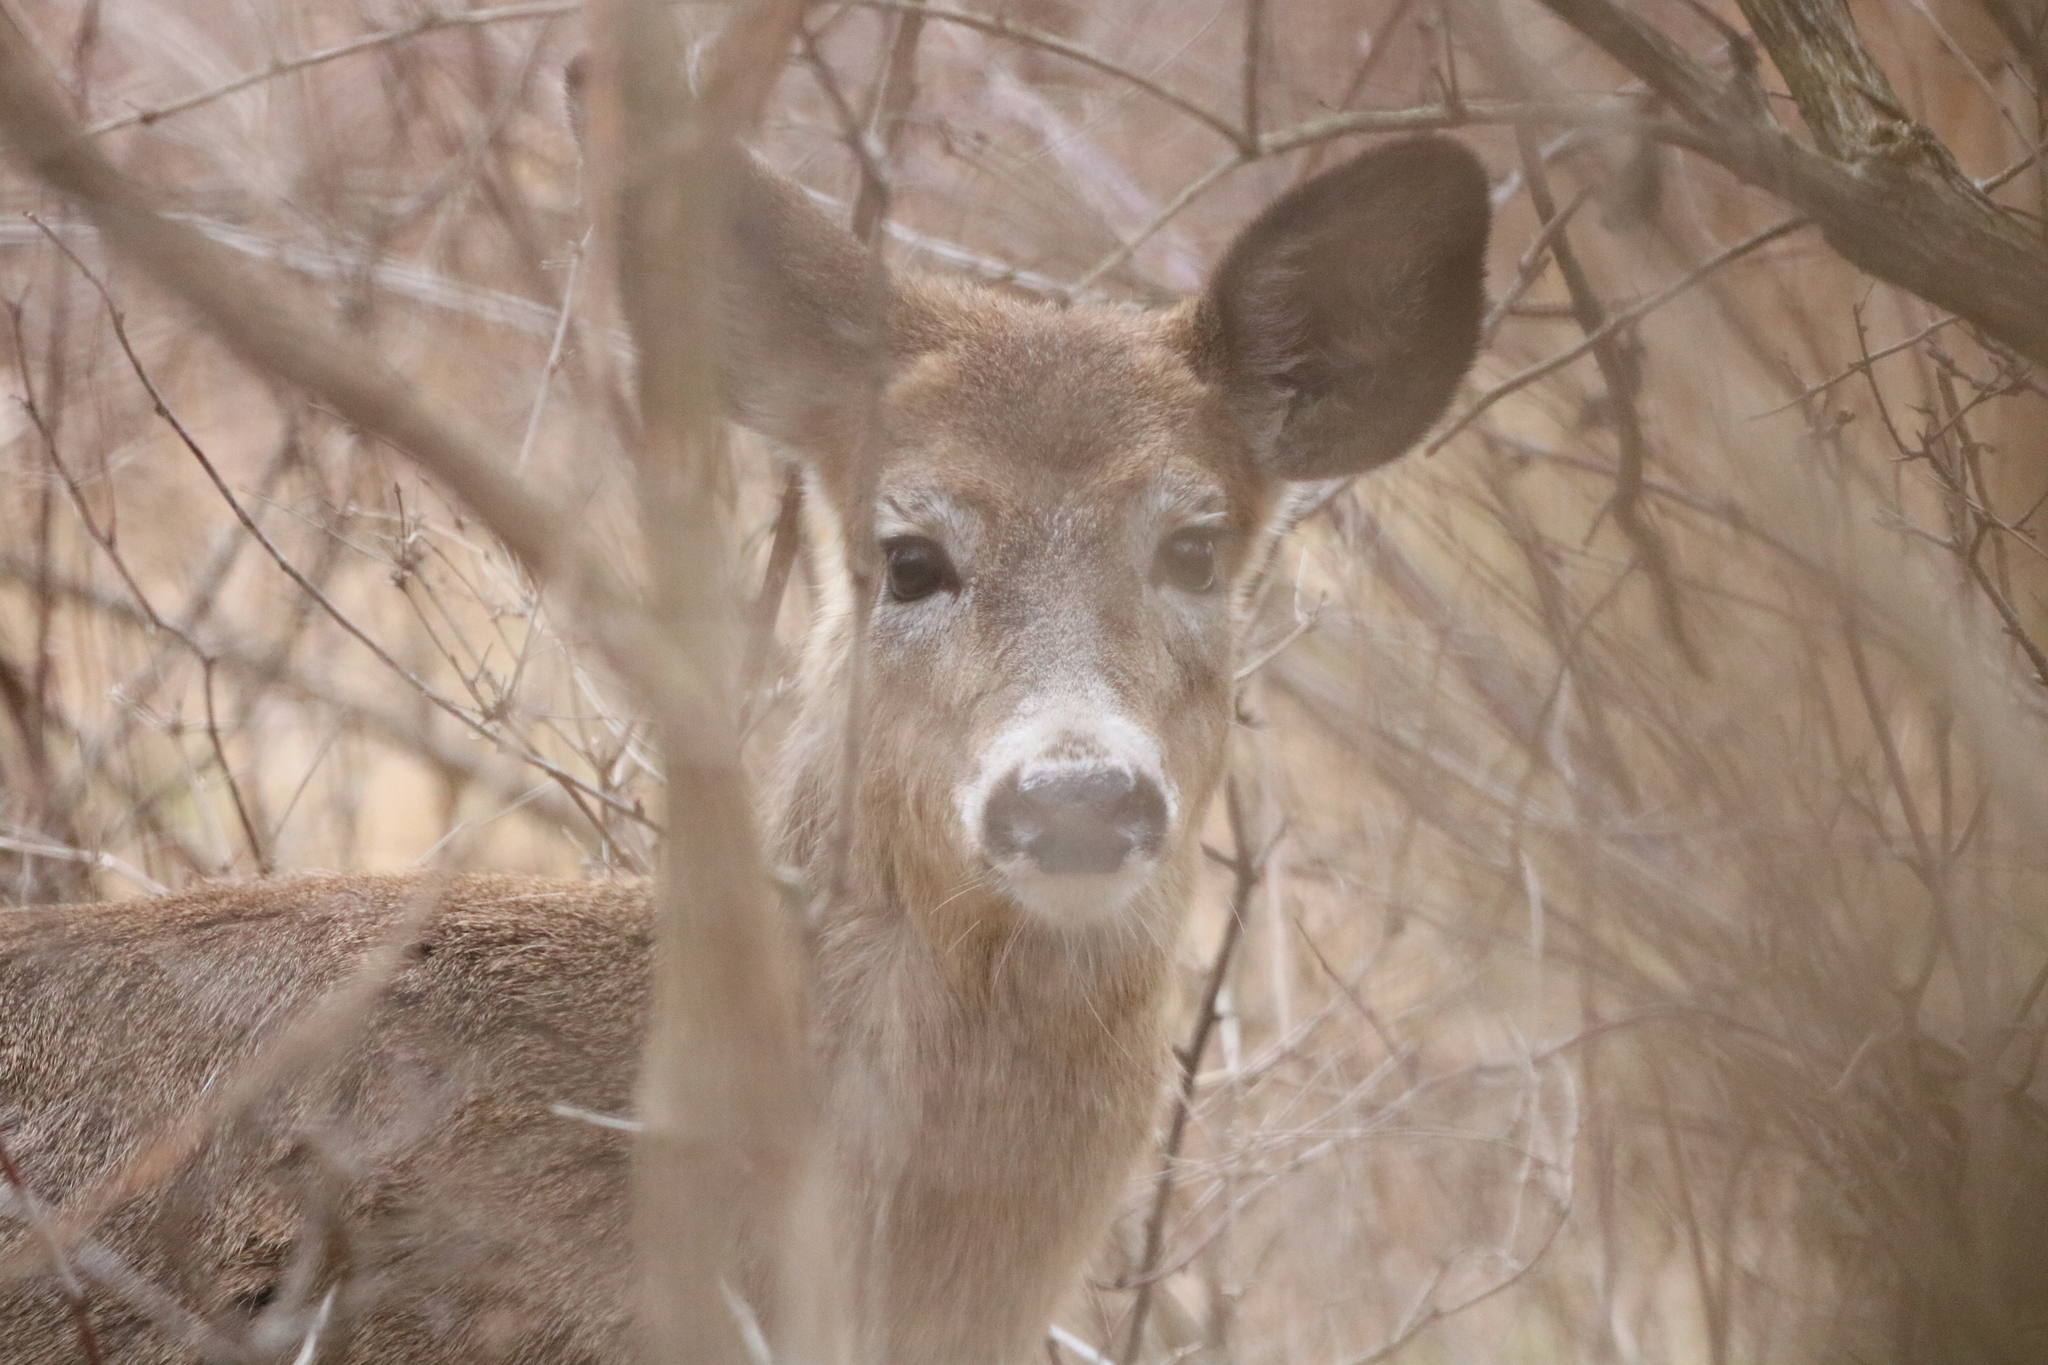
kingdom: Animalia
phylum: Chordata
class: Mammalia
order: Artiodactyla
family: Cervidae
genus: Odocoileus
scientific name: Odocoileus virginianus
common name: White-tailed deer
